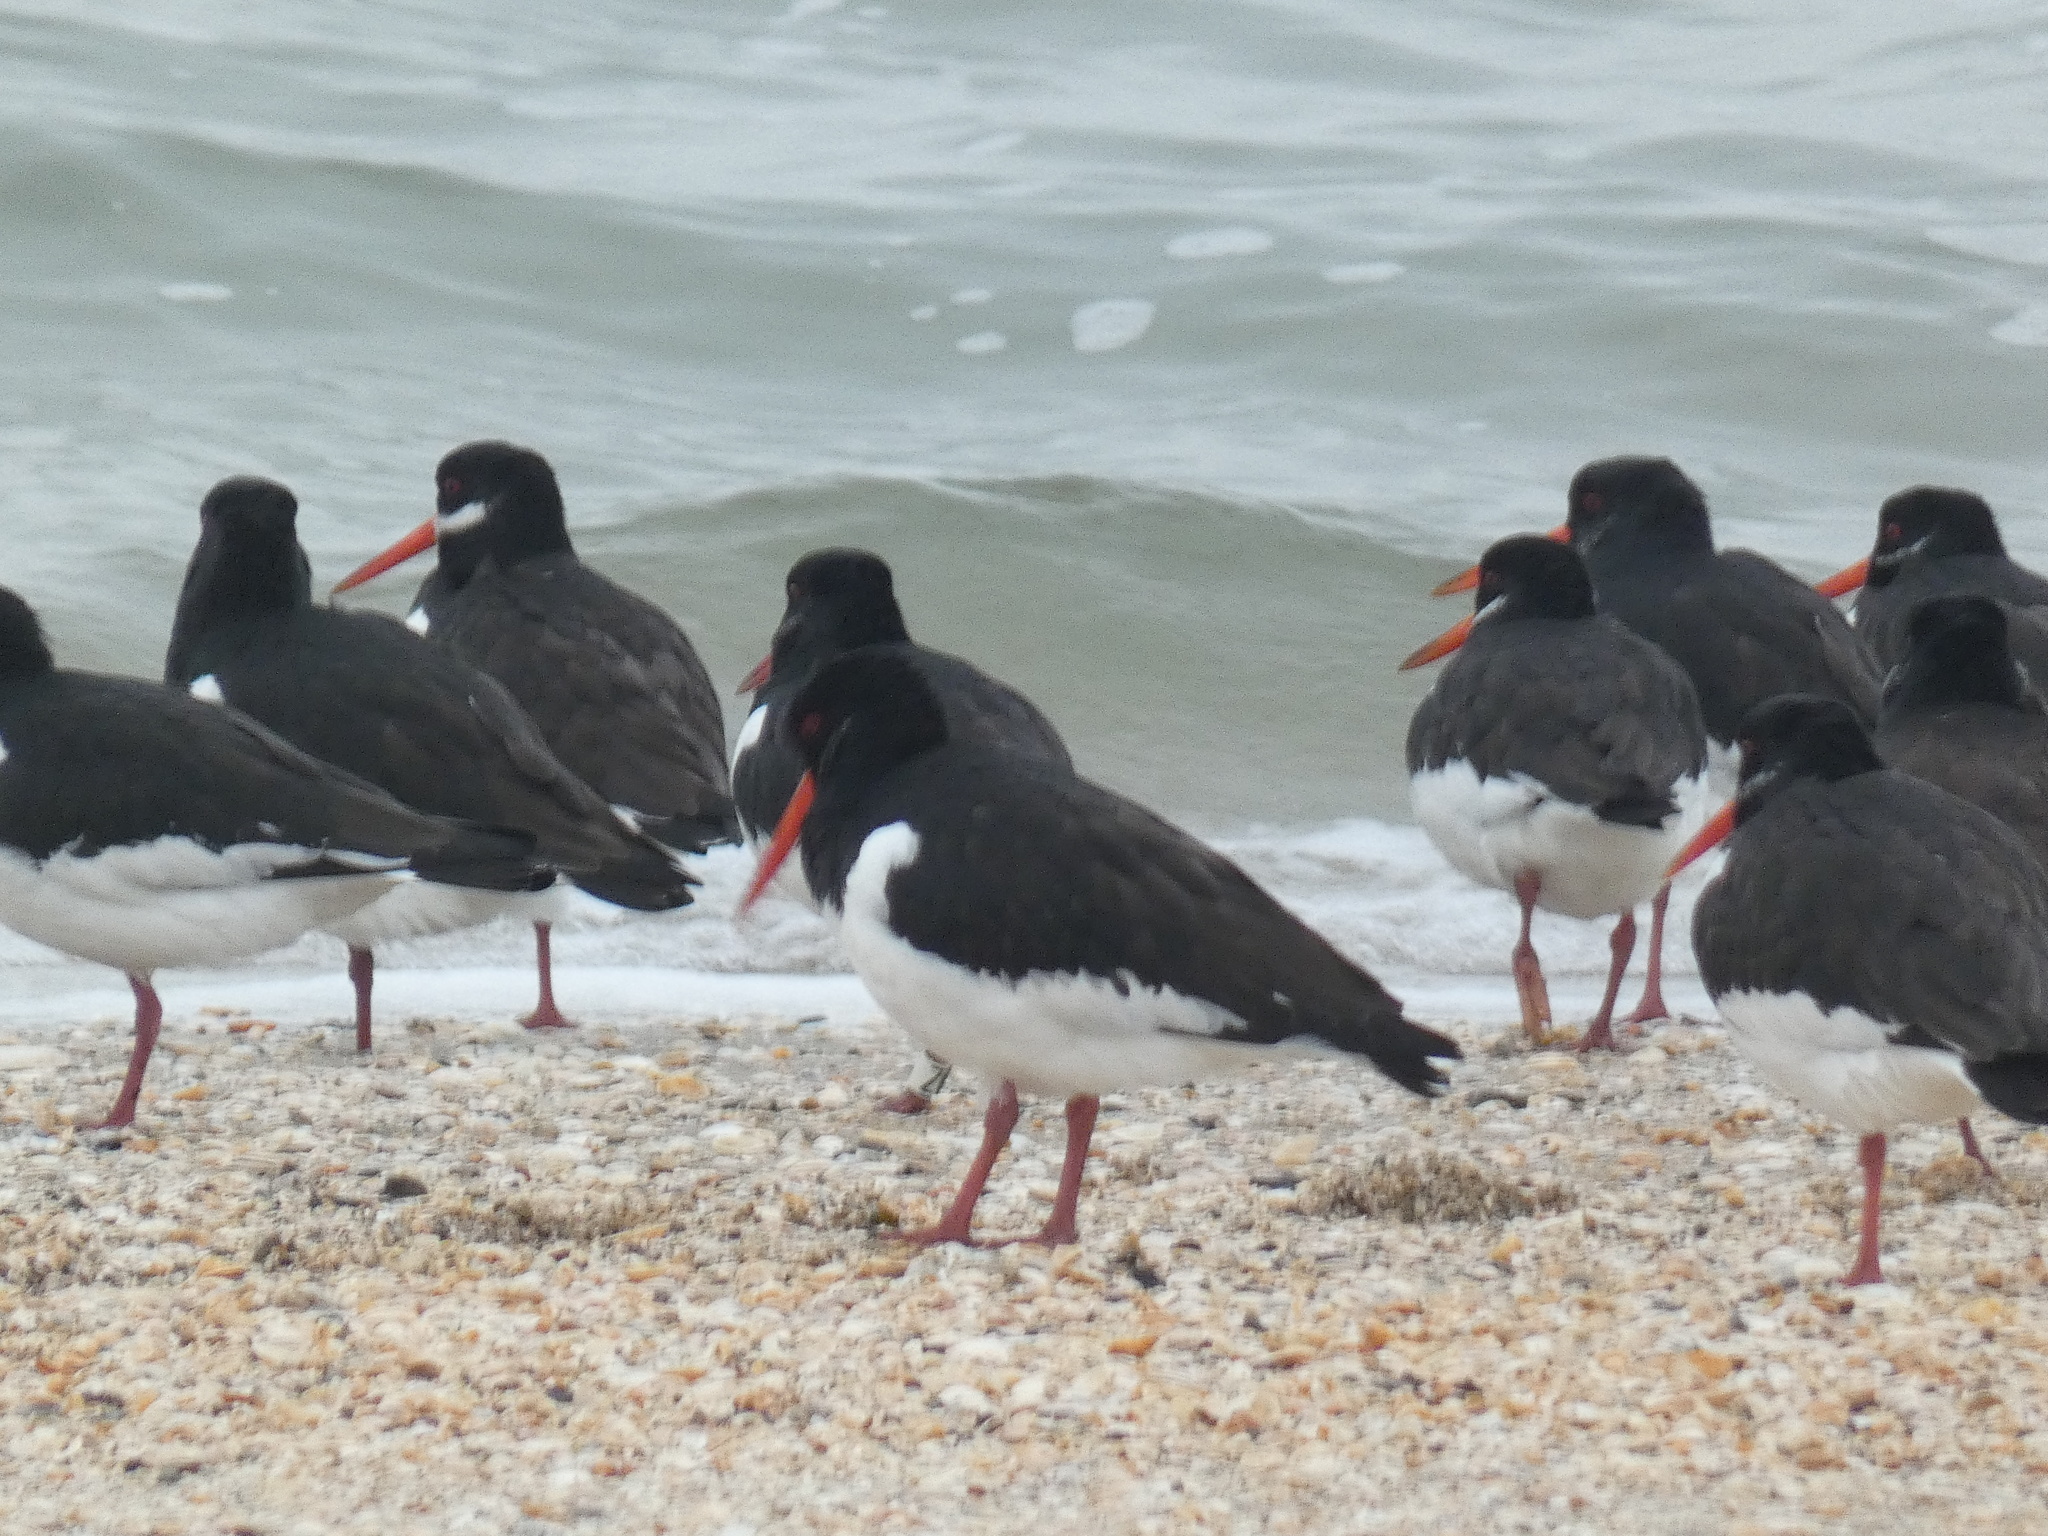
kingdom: Animalia
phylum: Chordata
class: Aves
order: Charadriiformes
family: Haematopodidae
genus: Haematopus
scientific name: Haematopus ostralegus
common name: Eurasian oystercatcher
